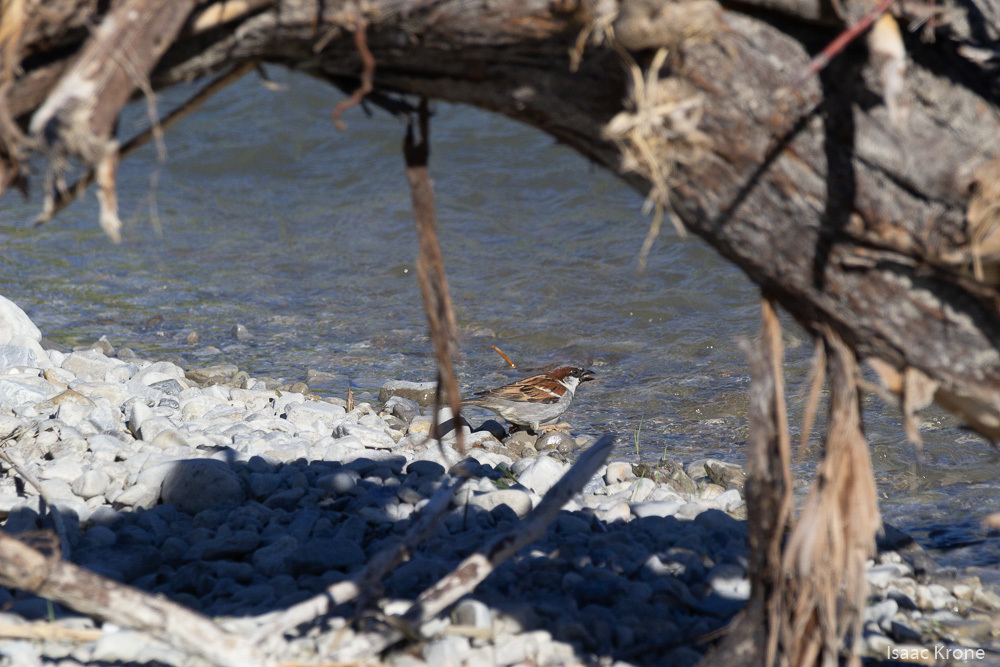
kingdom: Animalia
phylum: Chordata
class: Aves
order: Passeriformes
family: Passeridae
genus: Passer
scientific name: Passer domesticus
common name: House sparrow
